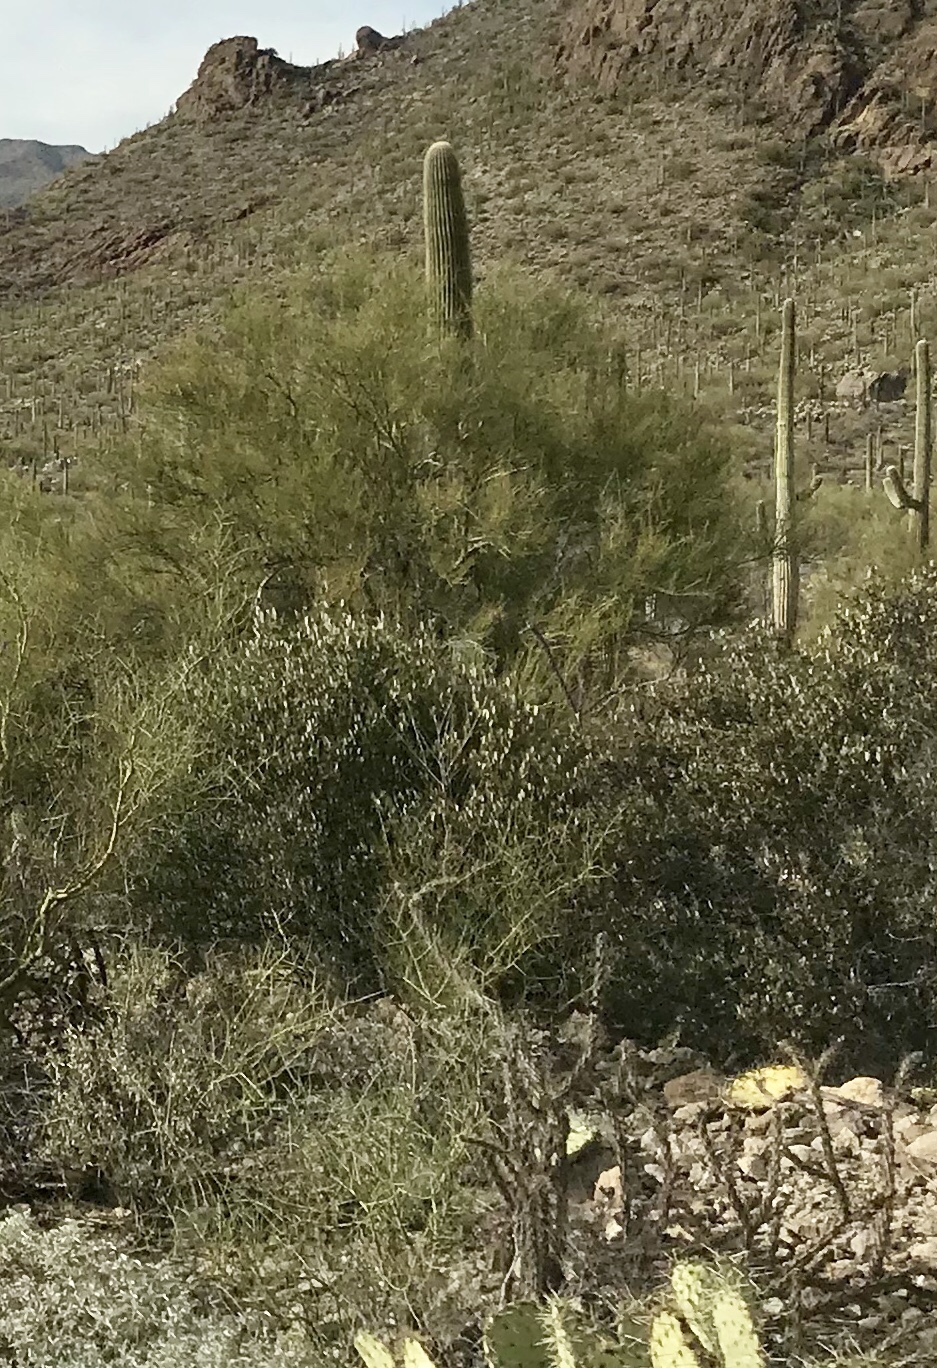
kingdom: Plantae
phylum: Tracheophyta
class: Magnoliopsida
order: Caryophyllales
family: Simmondsiaceae
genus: Simmondsia
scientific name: Simmondsia chinensis
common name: Jojoba
